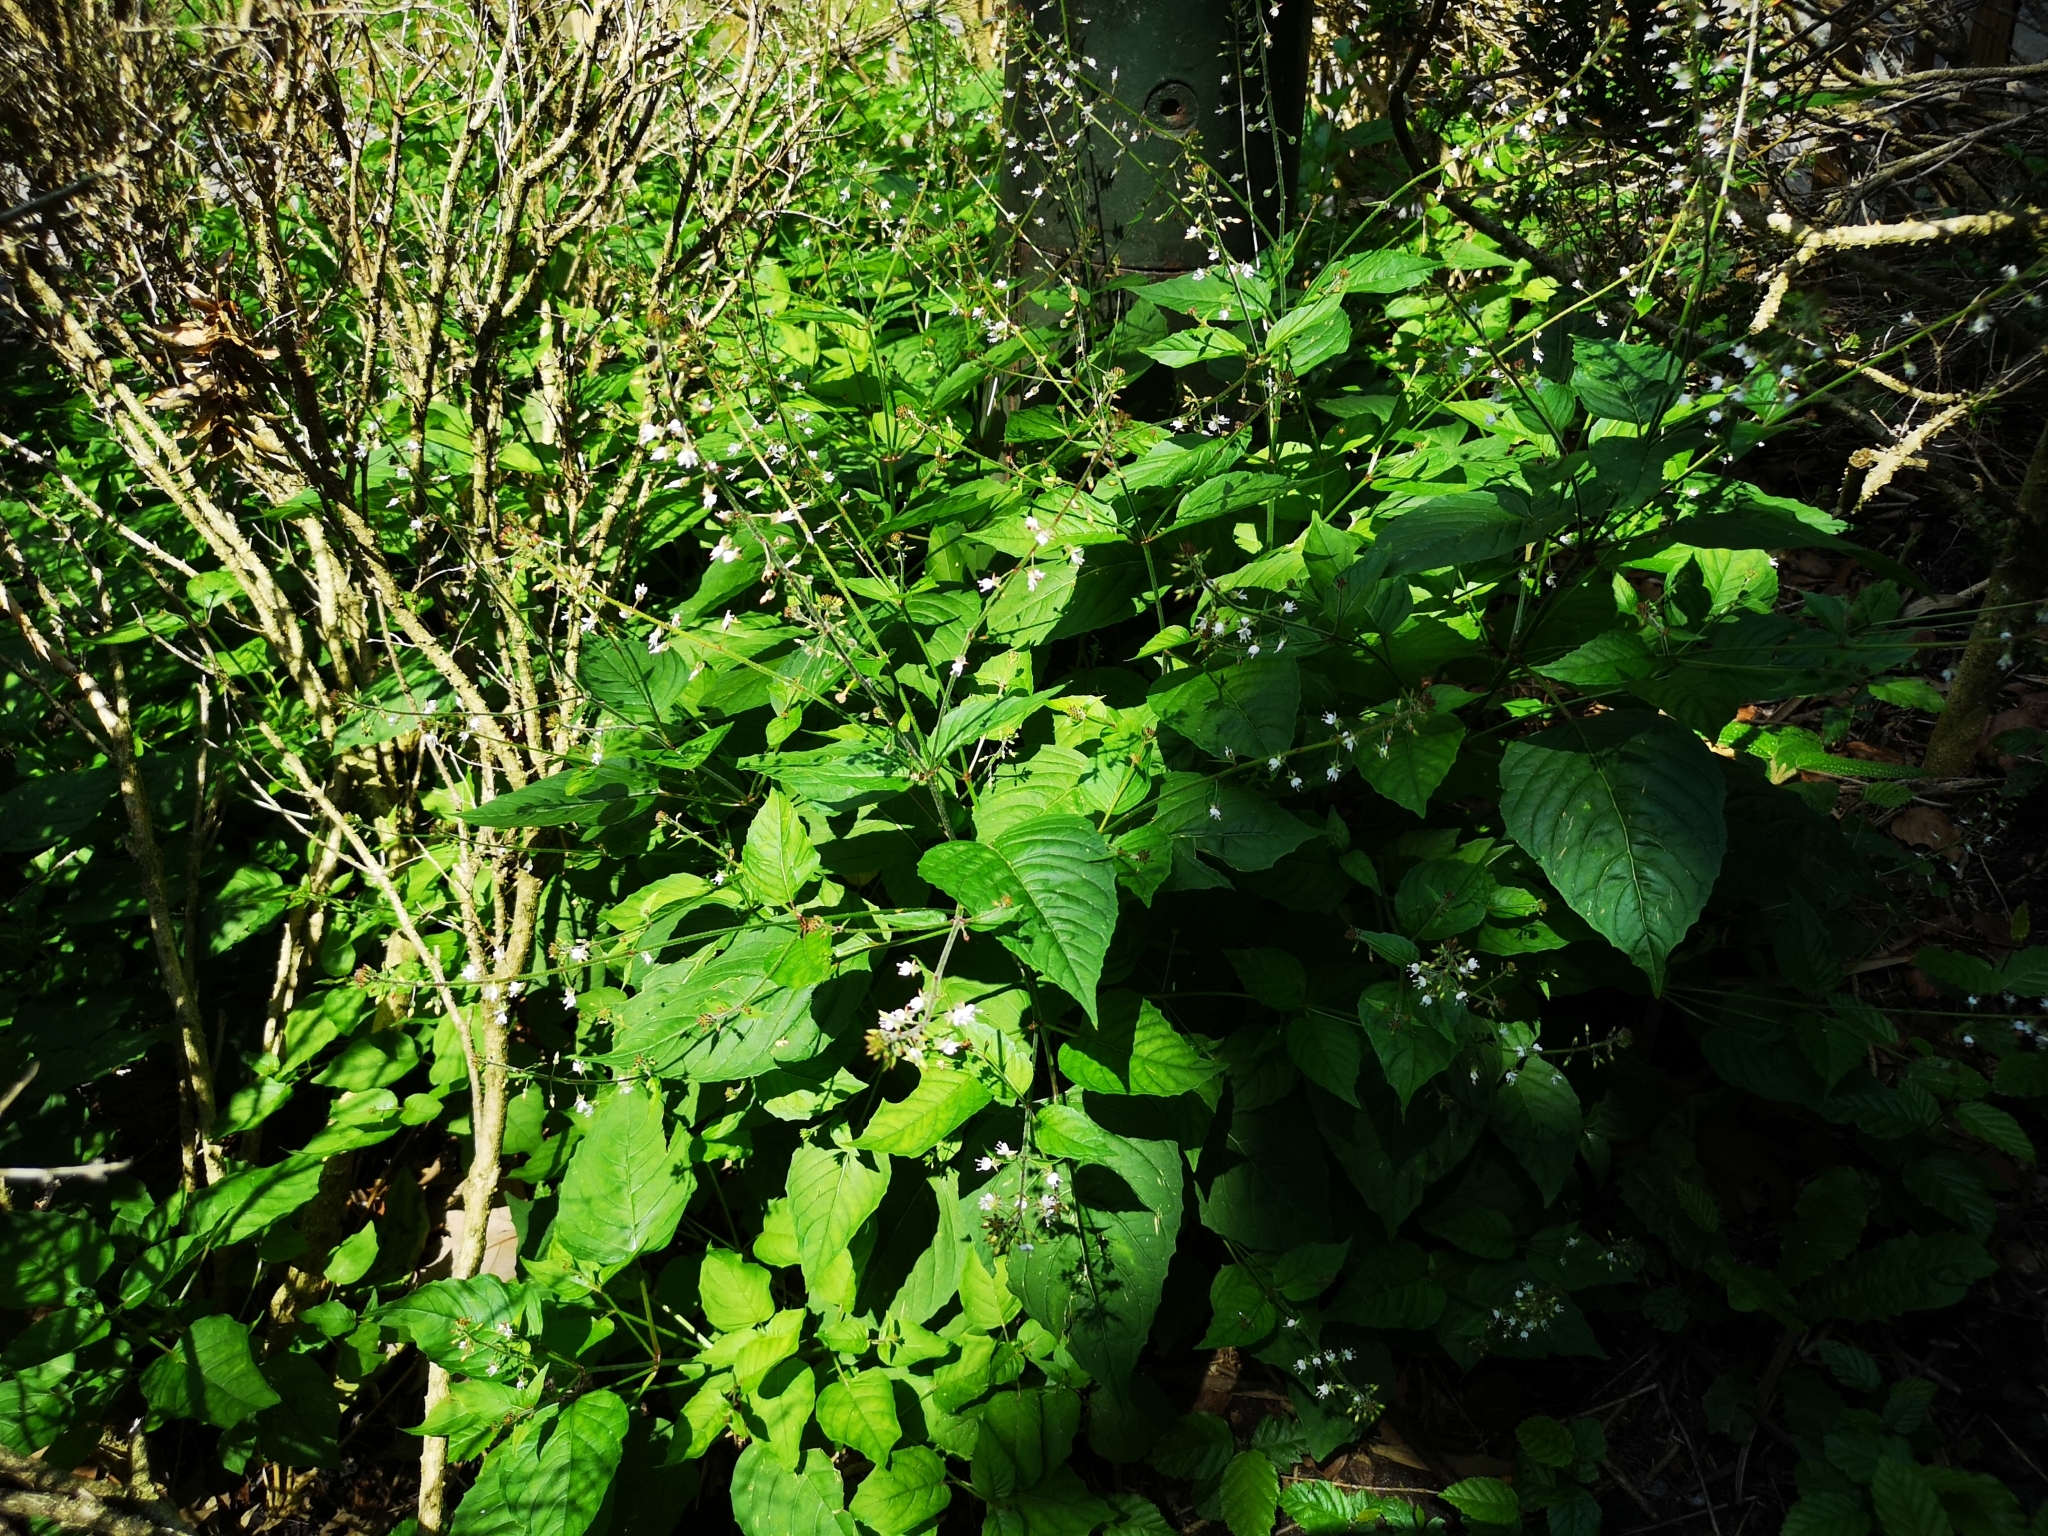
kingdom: Plantae
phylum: Tracheophyta
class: Magnoliopsida
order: Myrtales
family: Onagraceae
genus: Circaea
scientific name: Circaea lutetiana
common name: Enchanter's-nightshade
